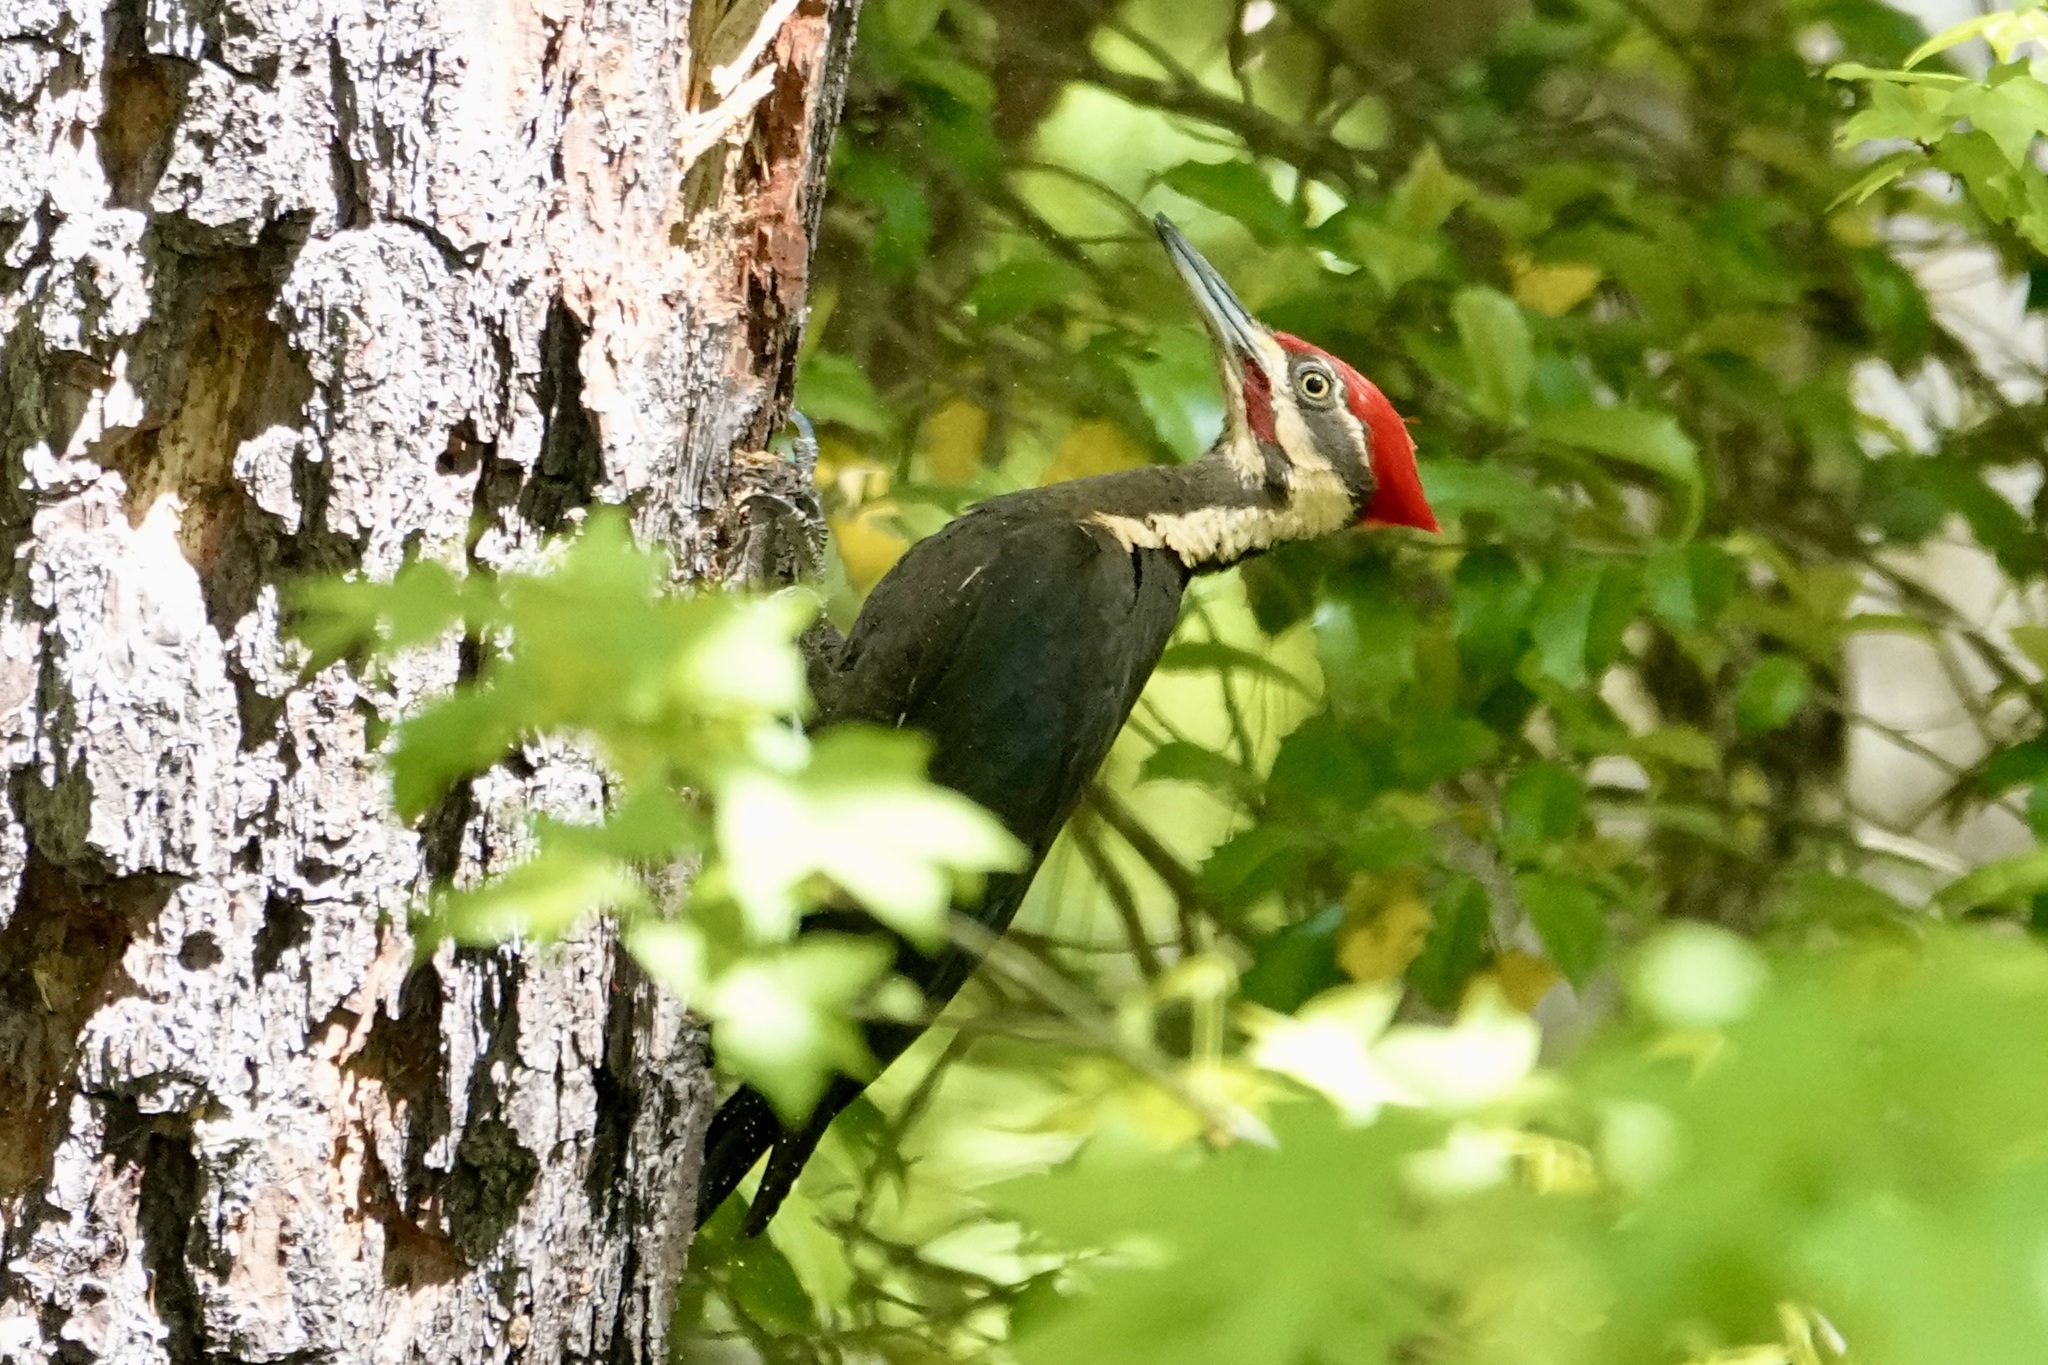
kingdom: Animalia
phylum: Chordata
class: Aves
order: Piciformes
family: Picidae
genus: Dryocopus
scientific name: Dryocopus pileatus
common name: Pileated woodpecker
